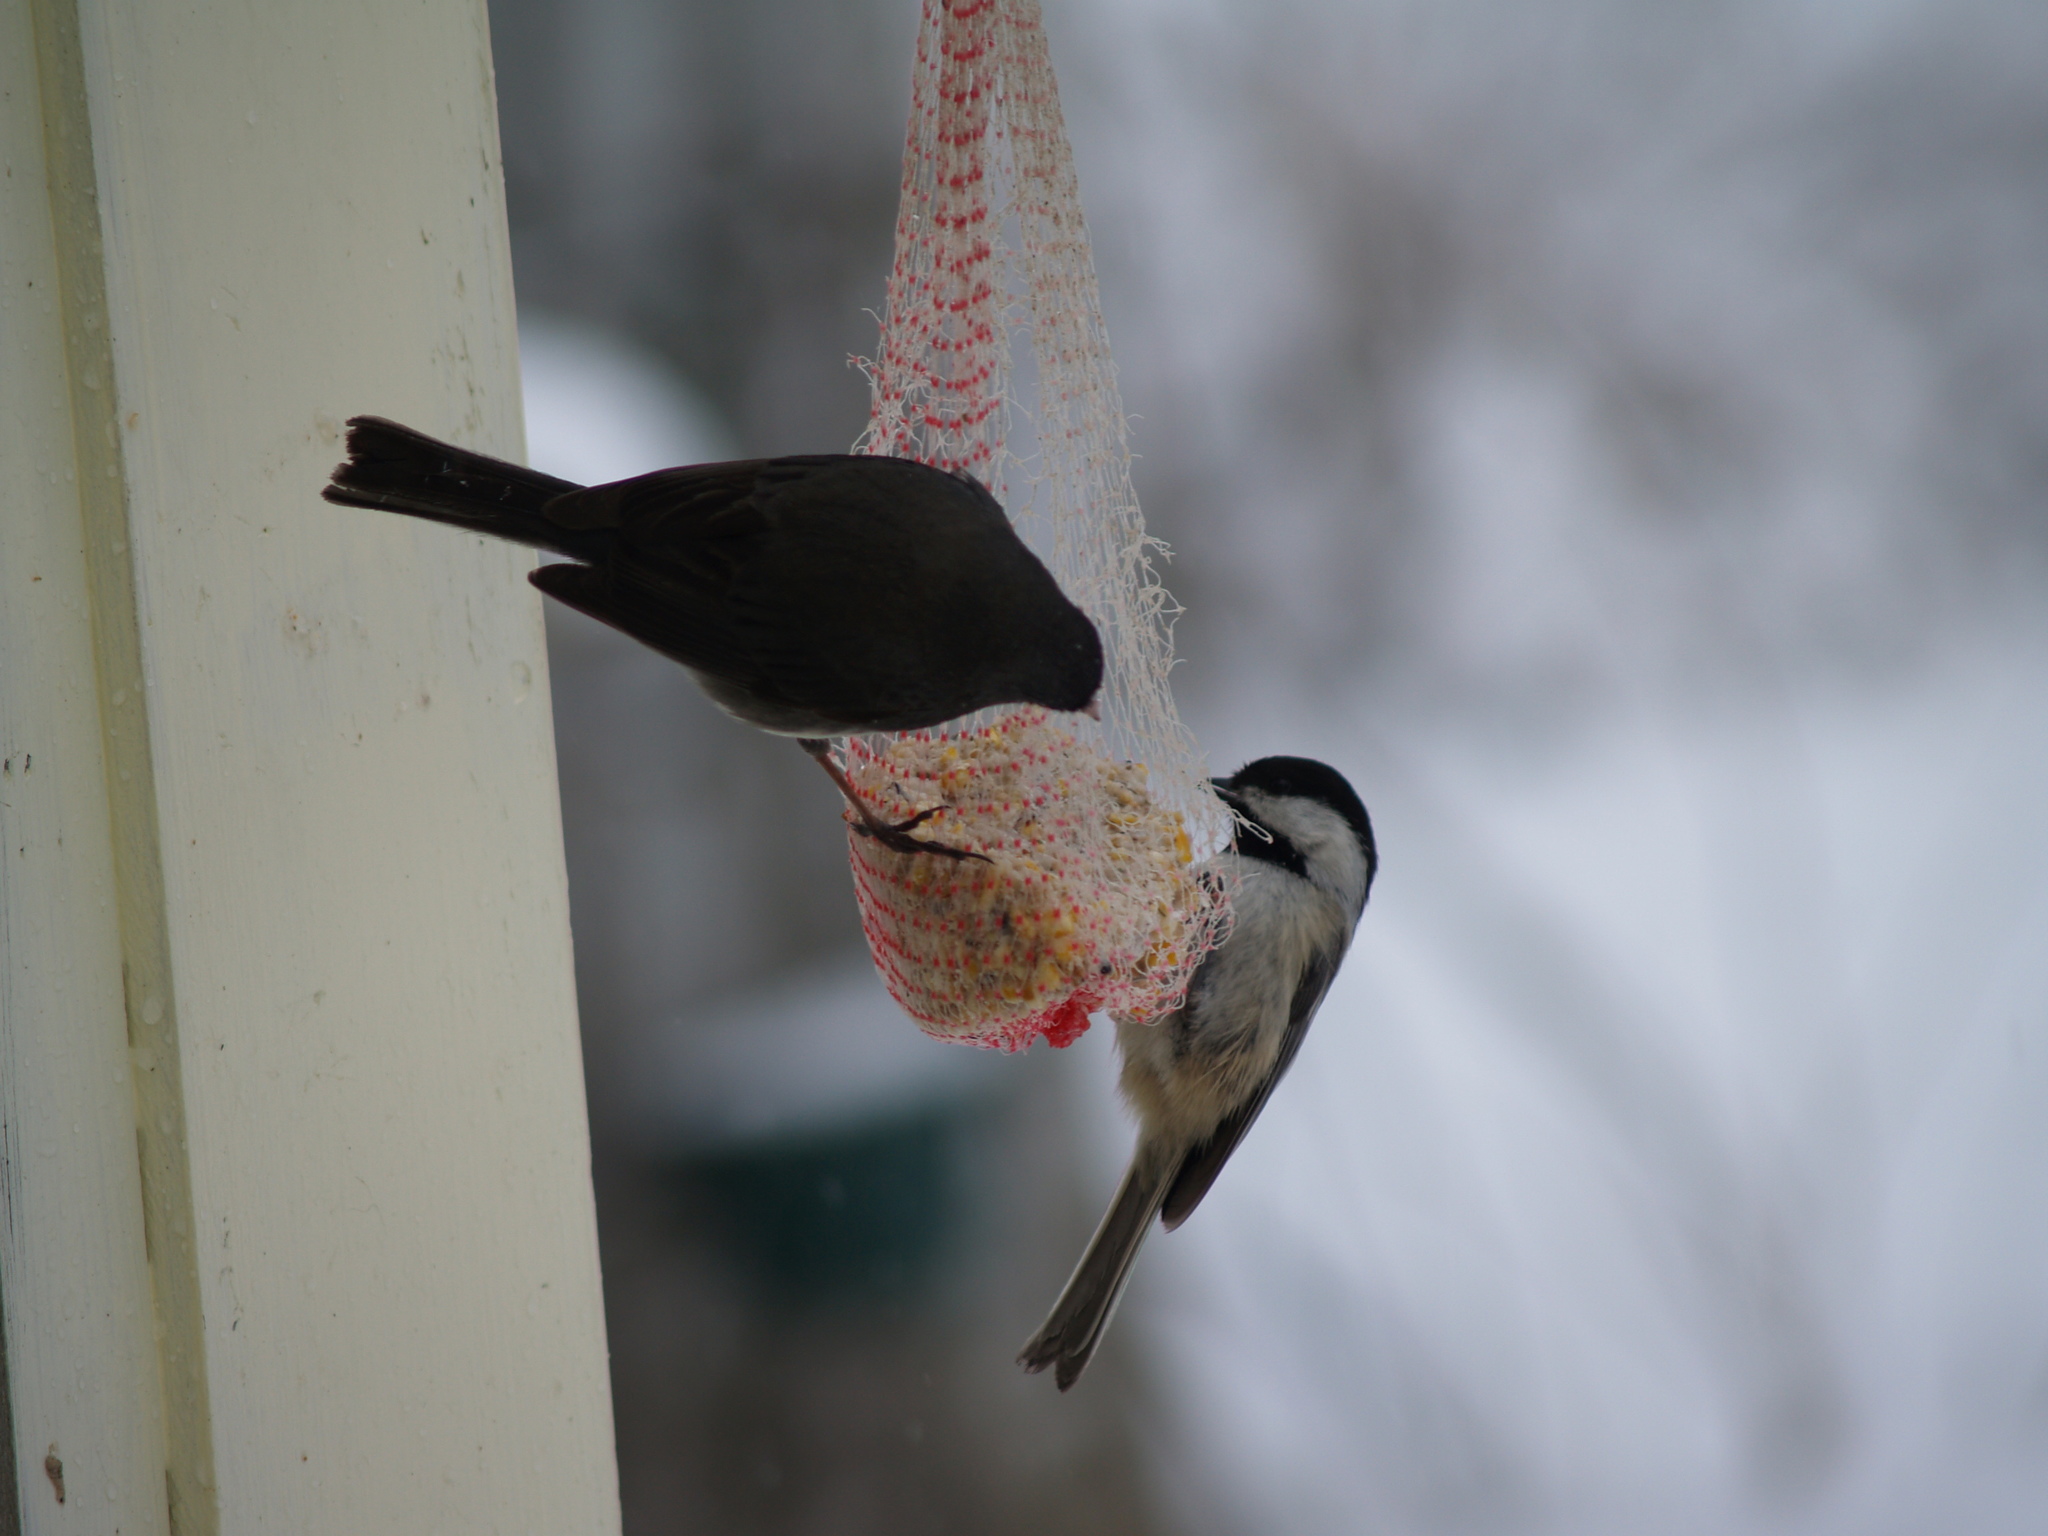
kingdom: Animalia
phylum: Chordata
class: Aves
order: Passeriformes
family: Paridae
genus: Poecile
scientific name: Poecile atricapillus
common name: Black-capped chickadee
